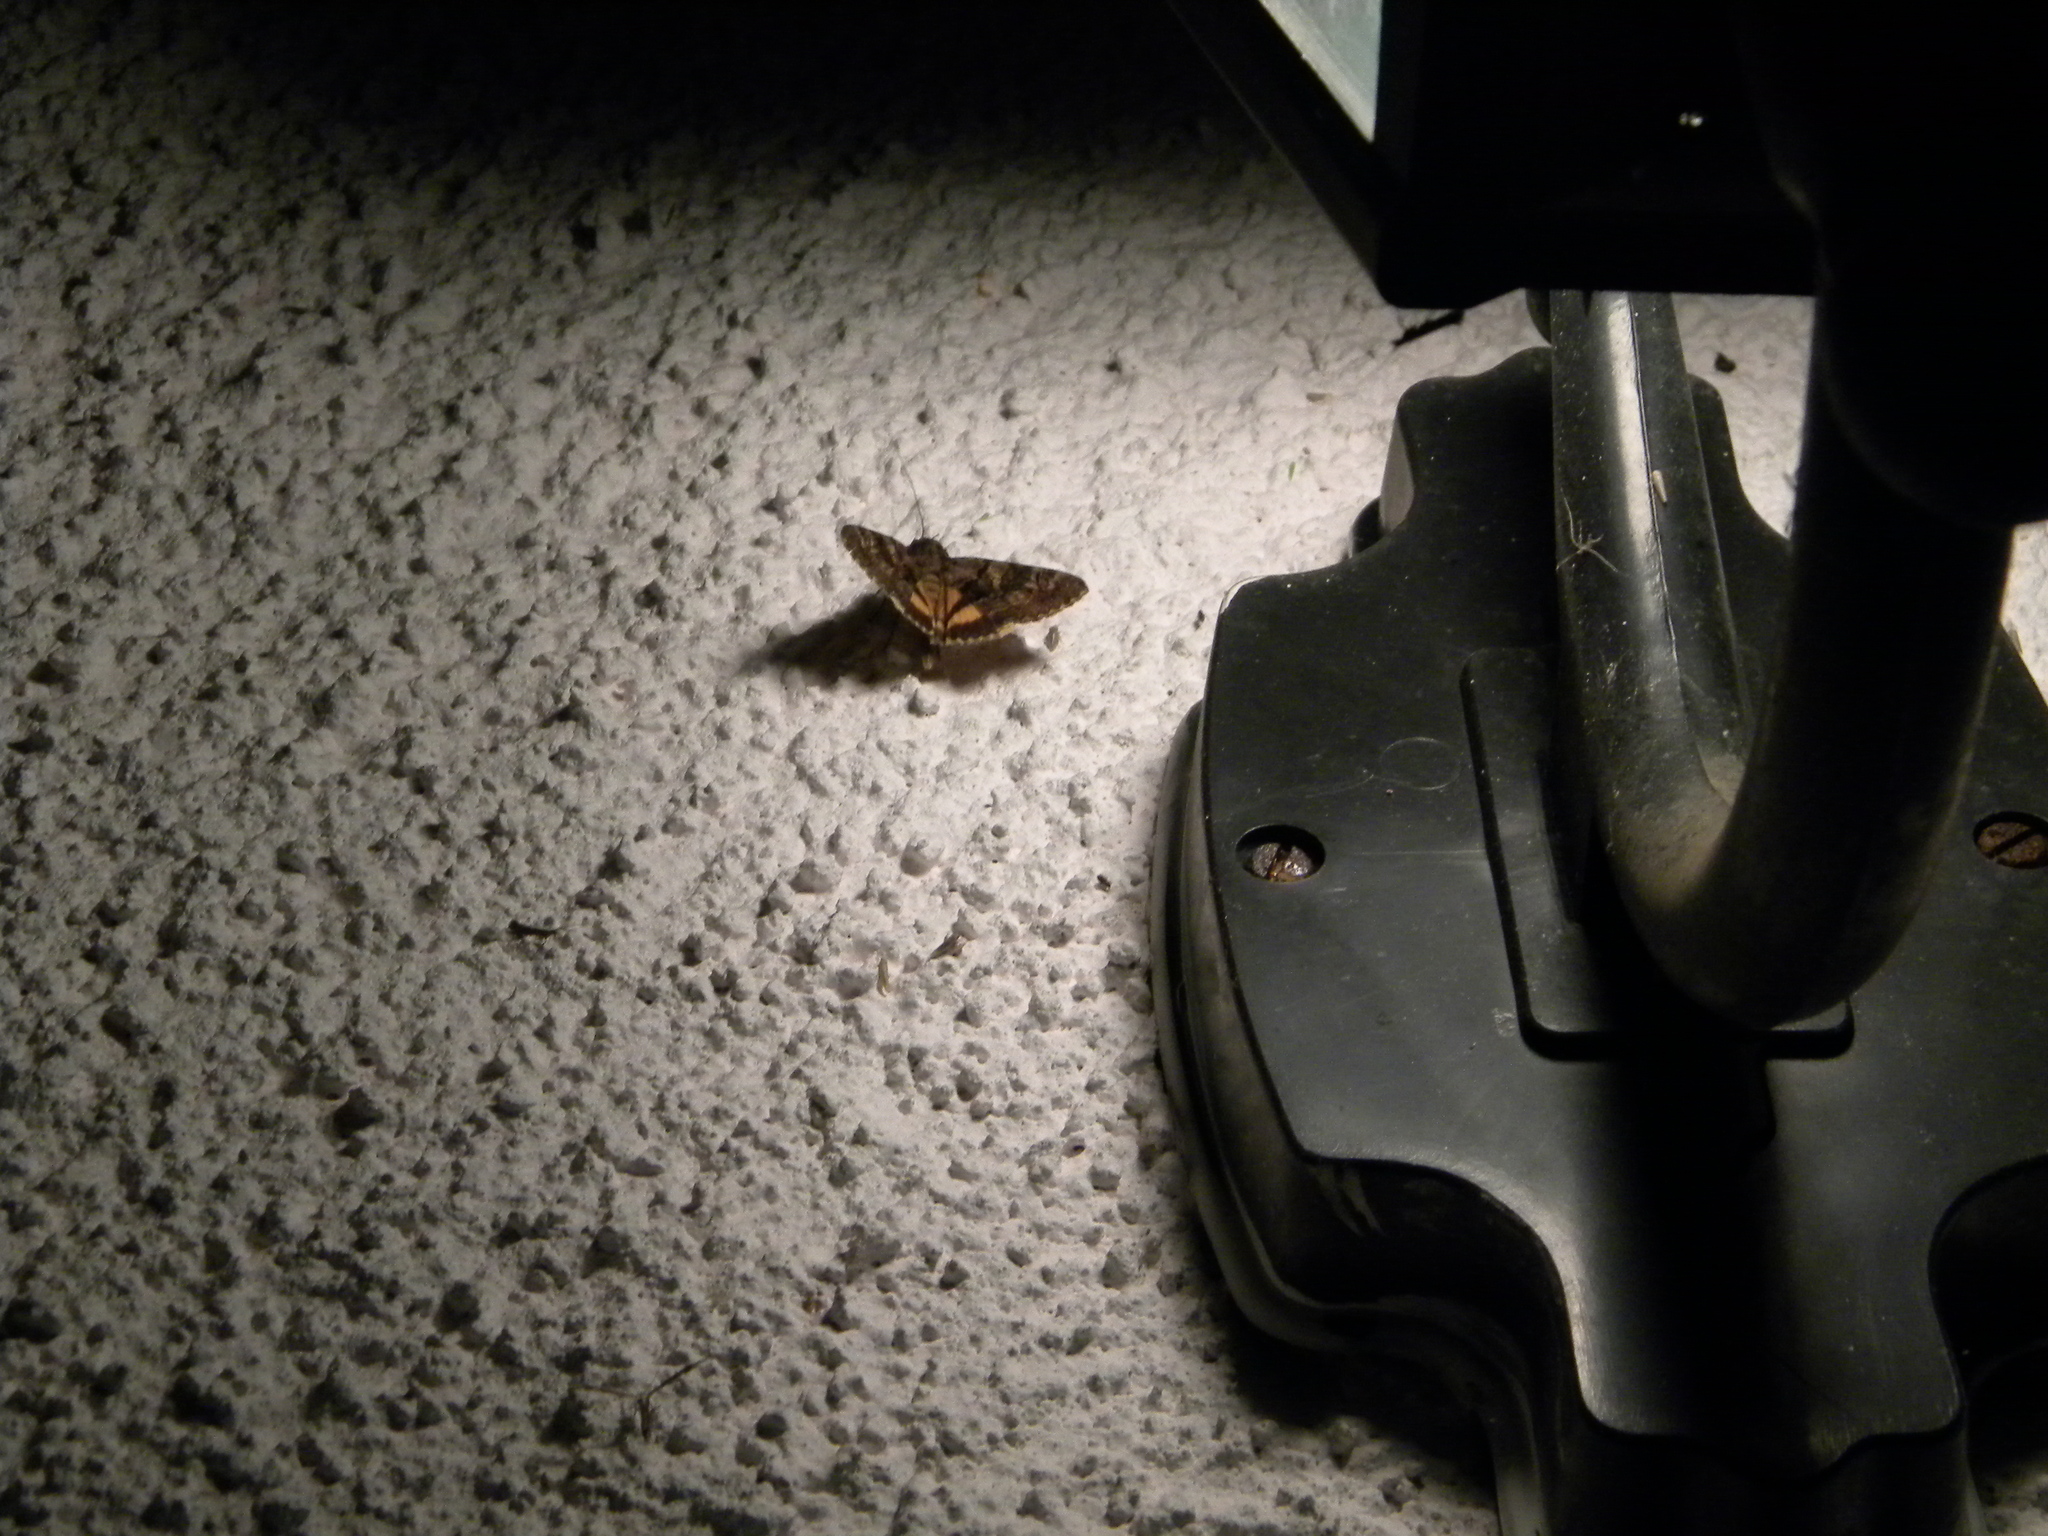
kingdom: Animalia
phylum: Arthropoda
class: Insecta
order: Lepidoptera
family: Erebidae
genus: Catocala
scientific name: Catocala nymphagoga
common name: Oak yellow underwing
